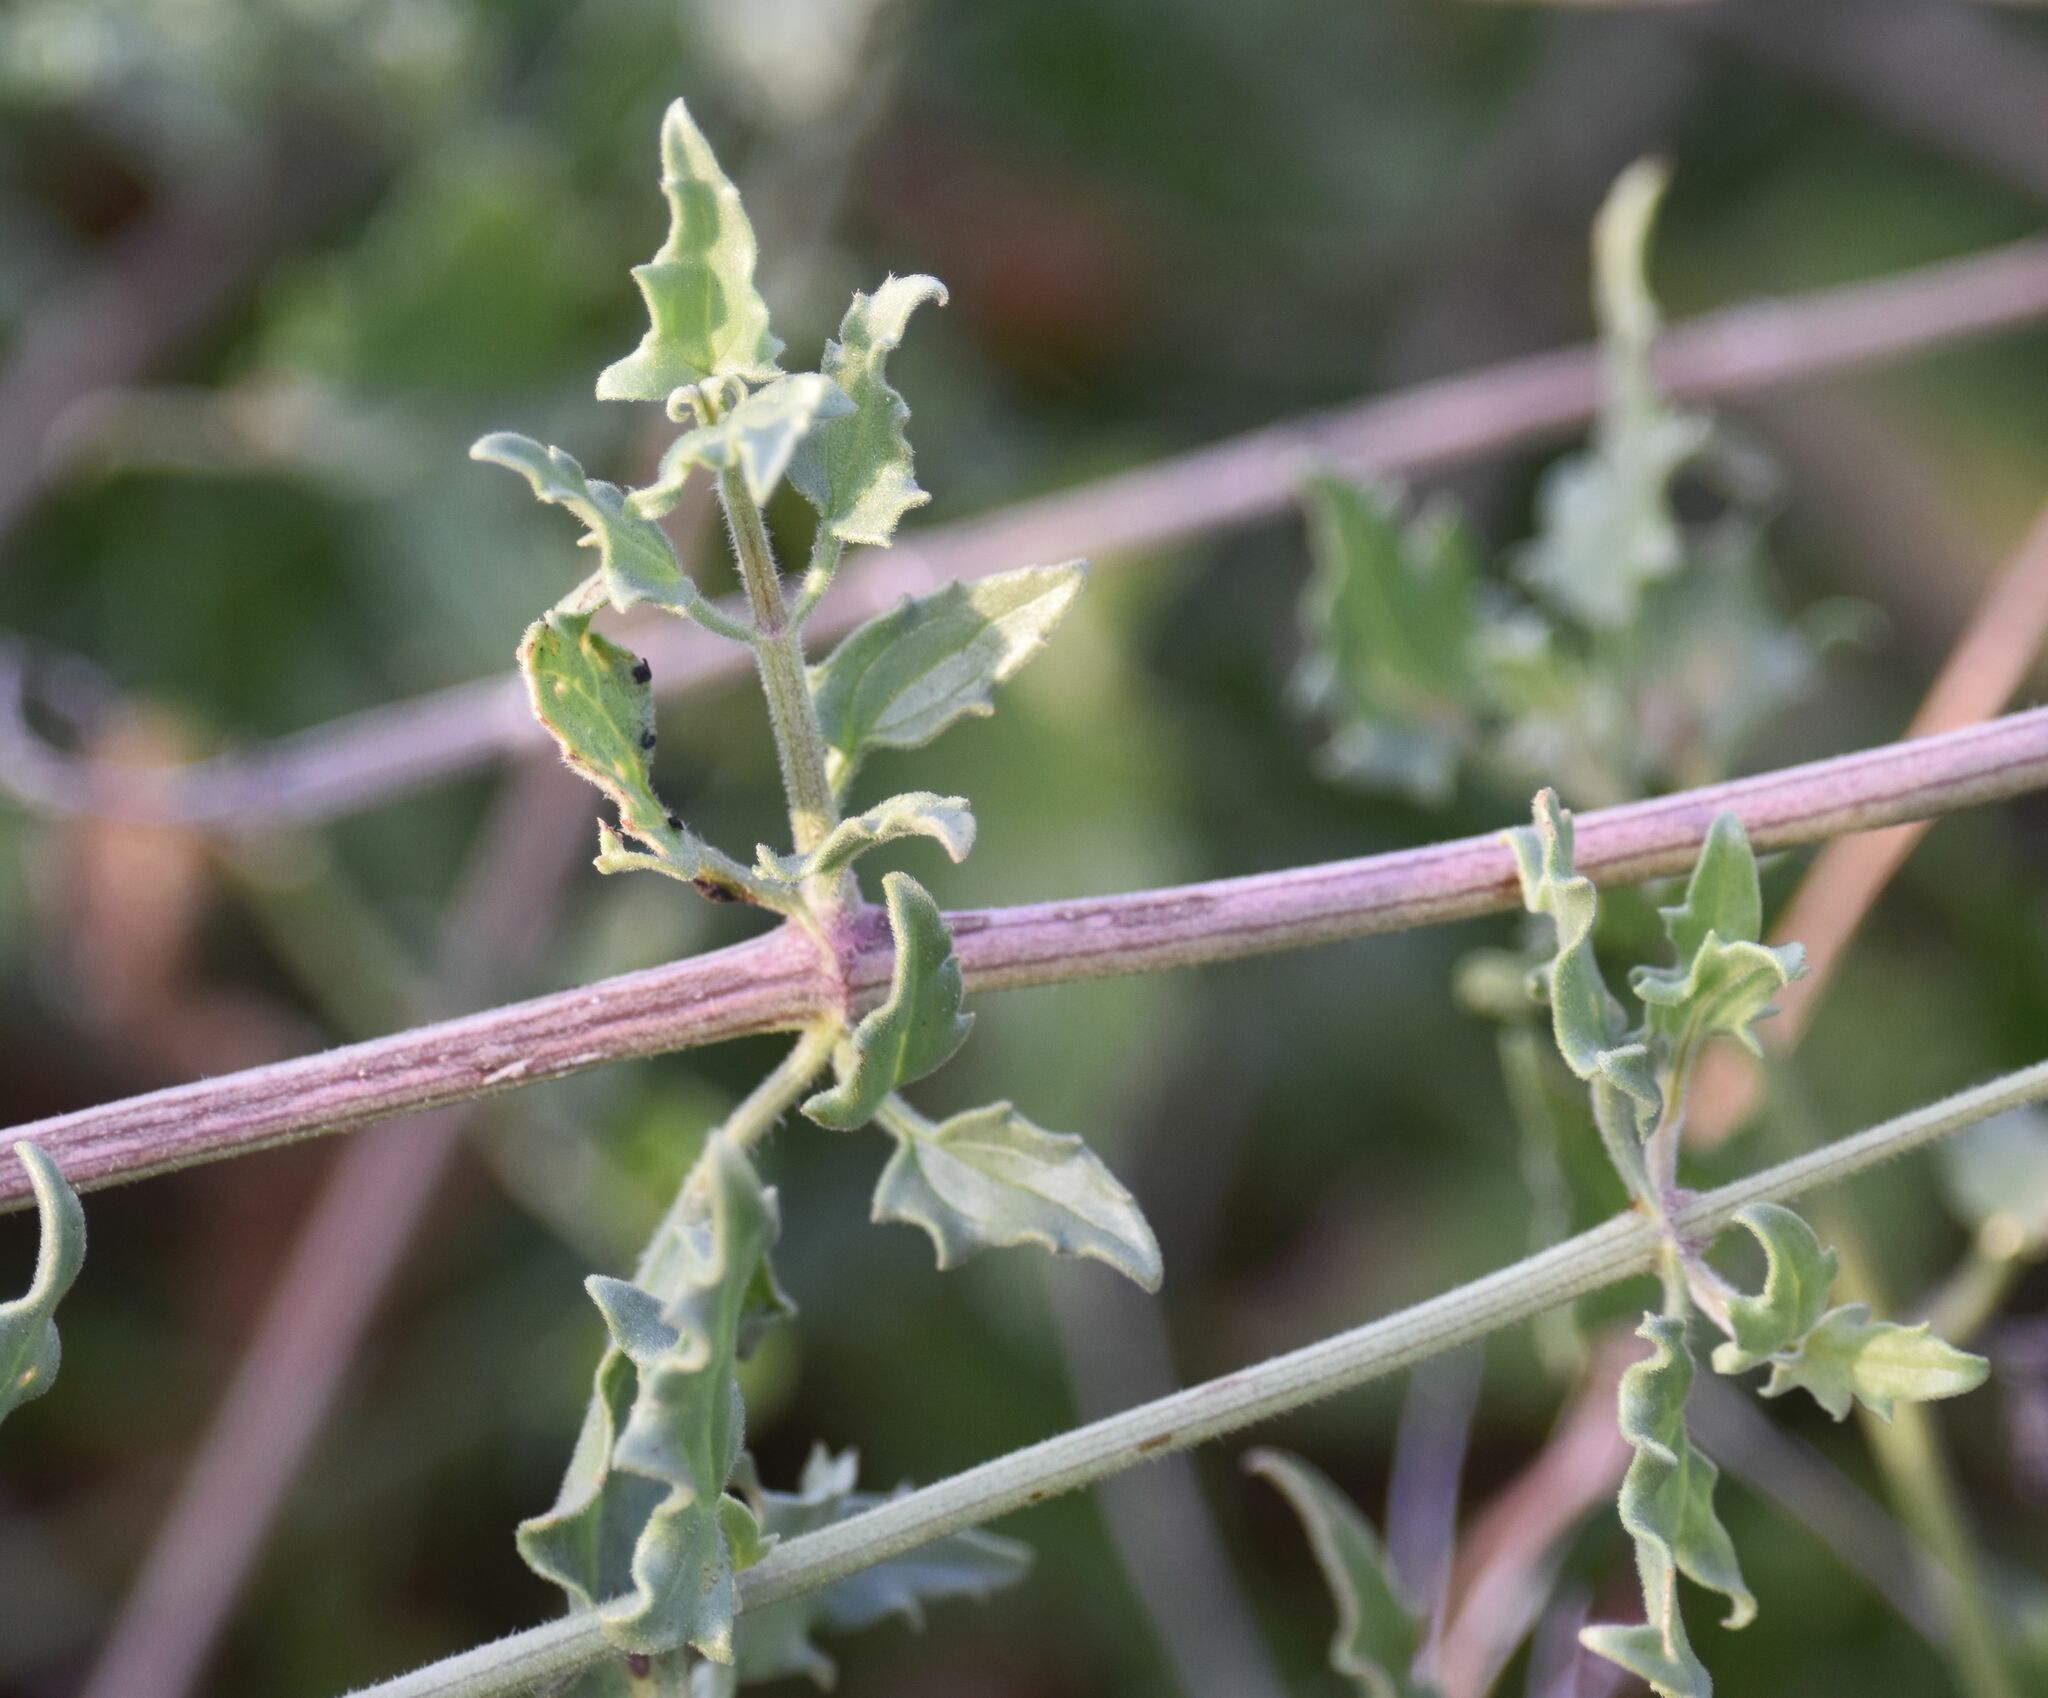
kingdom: Plantae
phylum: Tracheophyta
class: Magnoliopsida
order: Asterales
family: Asteraceae
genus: Bebbia
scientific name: Bebbia atriplicifolia
